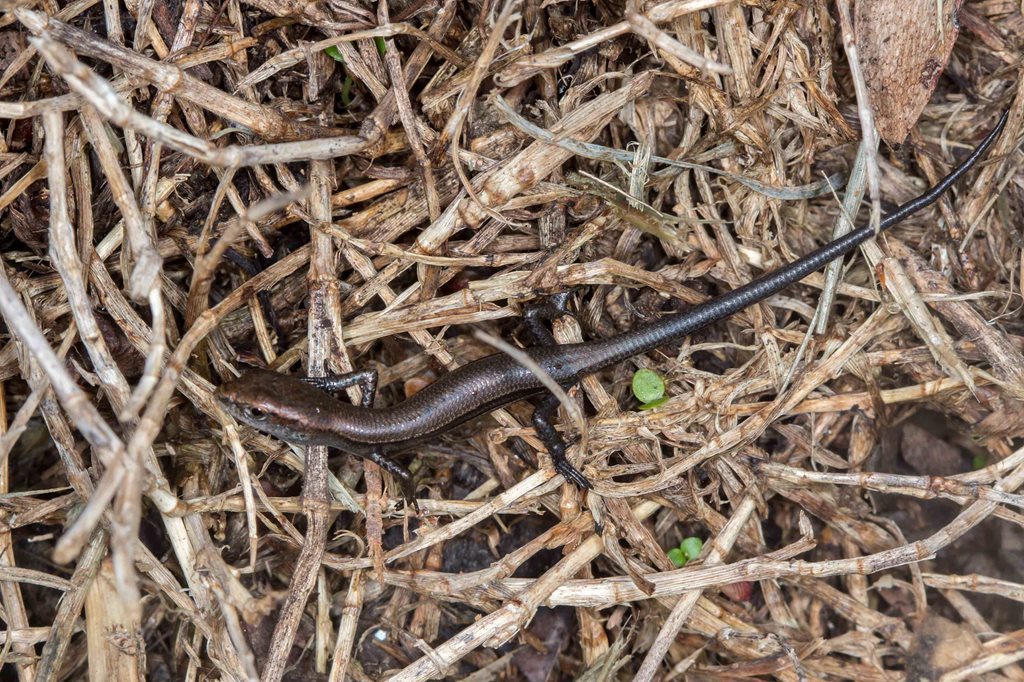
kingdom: Animalia
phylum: Chordata
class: Squamata
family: Scincidae
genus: Lampropholis
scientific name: Lampropholis delicata
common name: Plague skink
